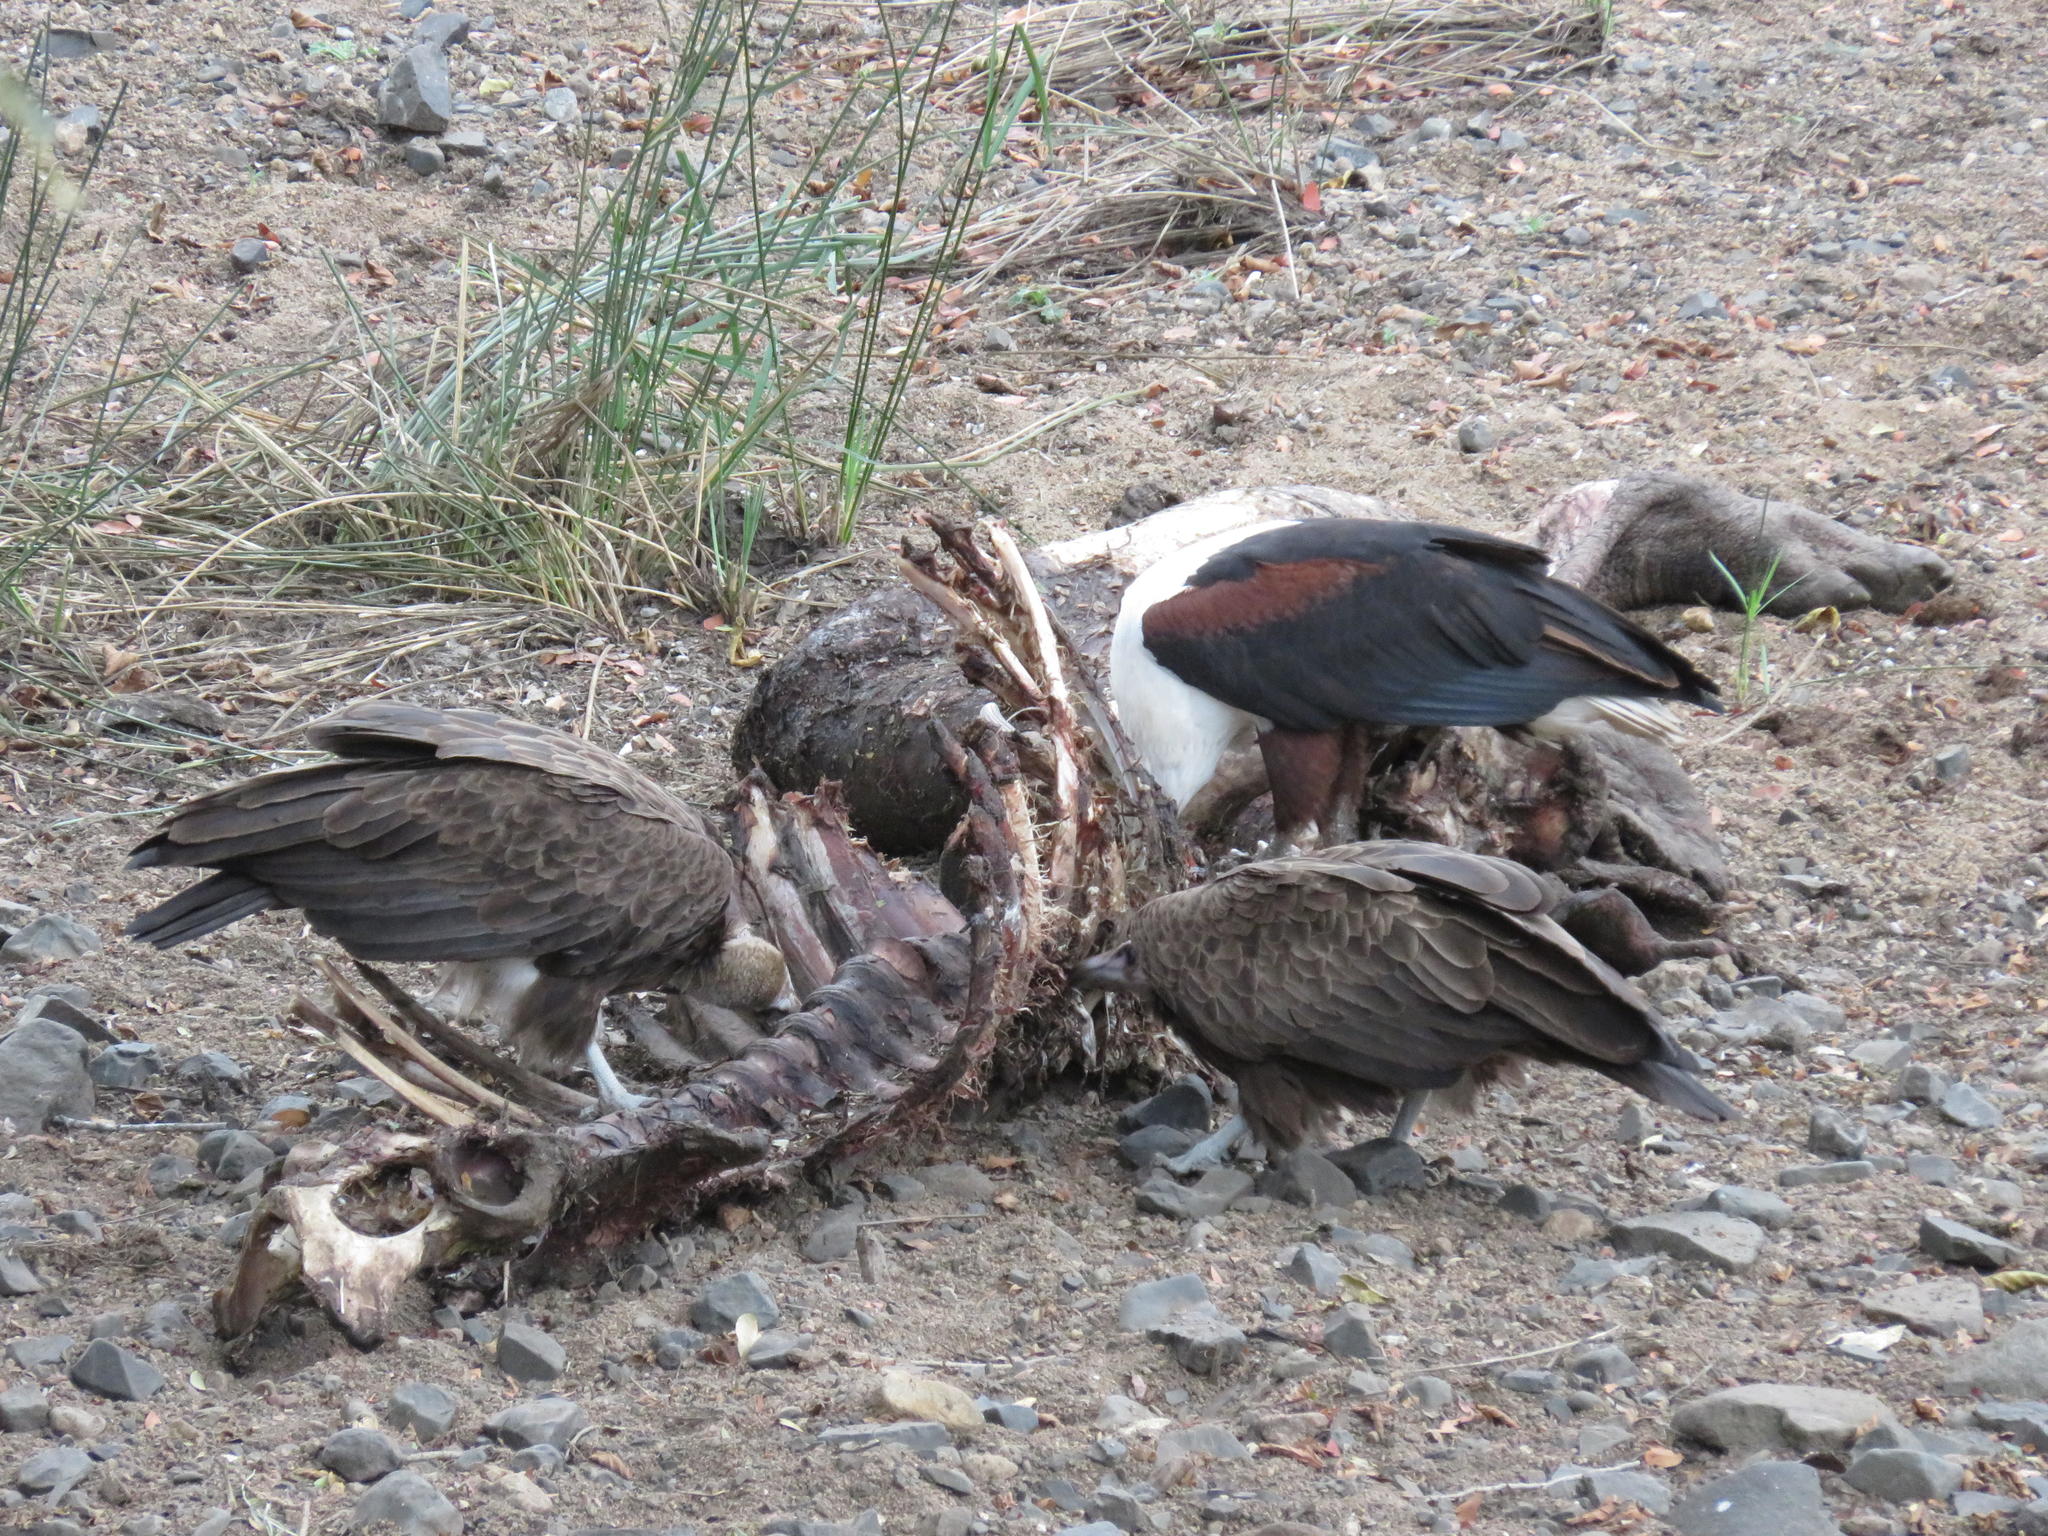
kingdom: Animalia
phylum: Chordata
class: Aves
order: Accipitriformes
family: Accipitridae
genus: Haliaeetus
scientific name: Haliaeetus vocifer
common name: African fish eagle
